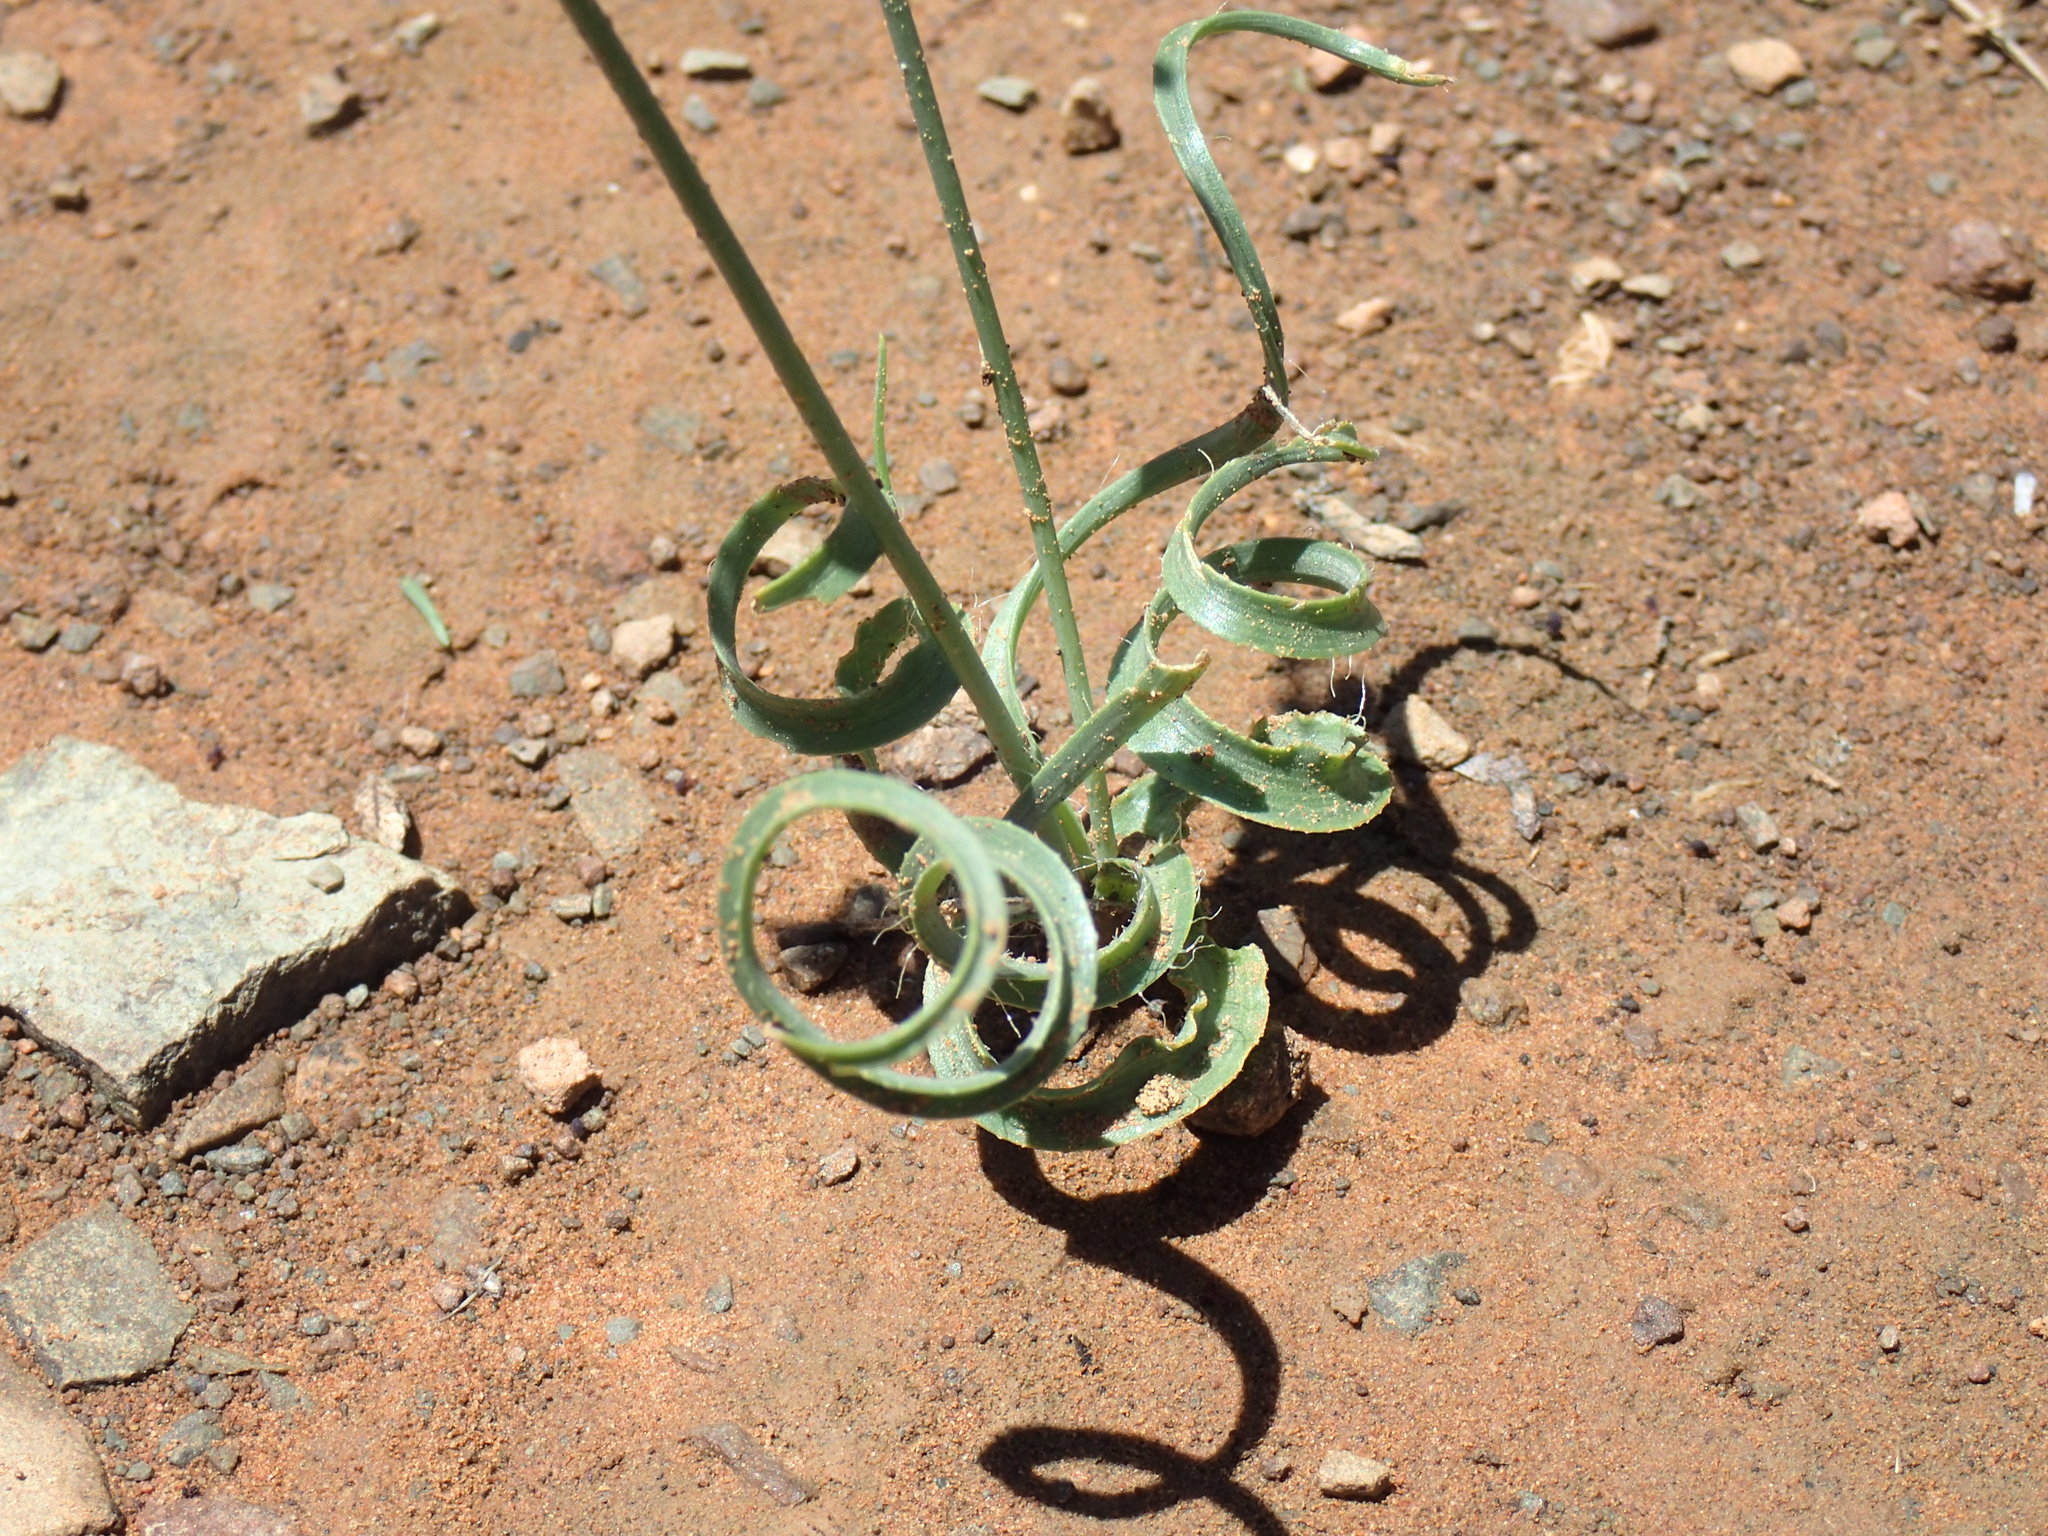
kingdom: Plantae
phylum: Tracheophyta
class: Liliopsida
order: Asparagales
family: Asparagaceae
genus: Dipcadi
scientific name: Dipcadi crispum
